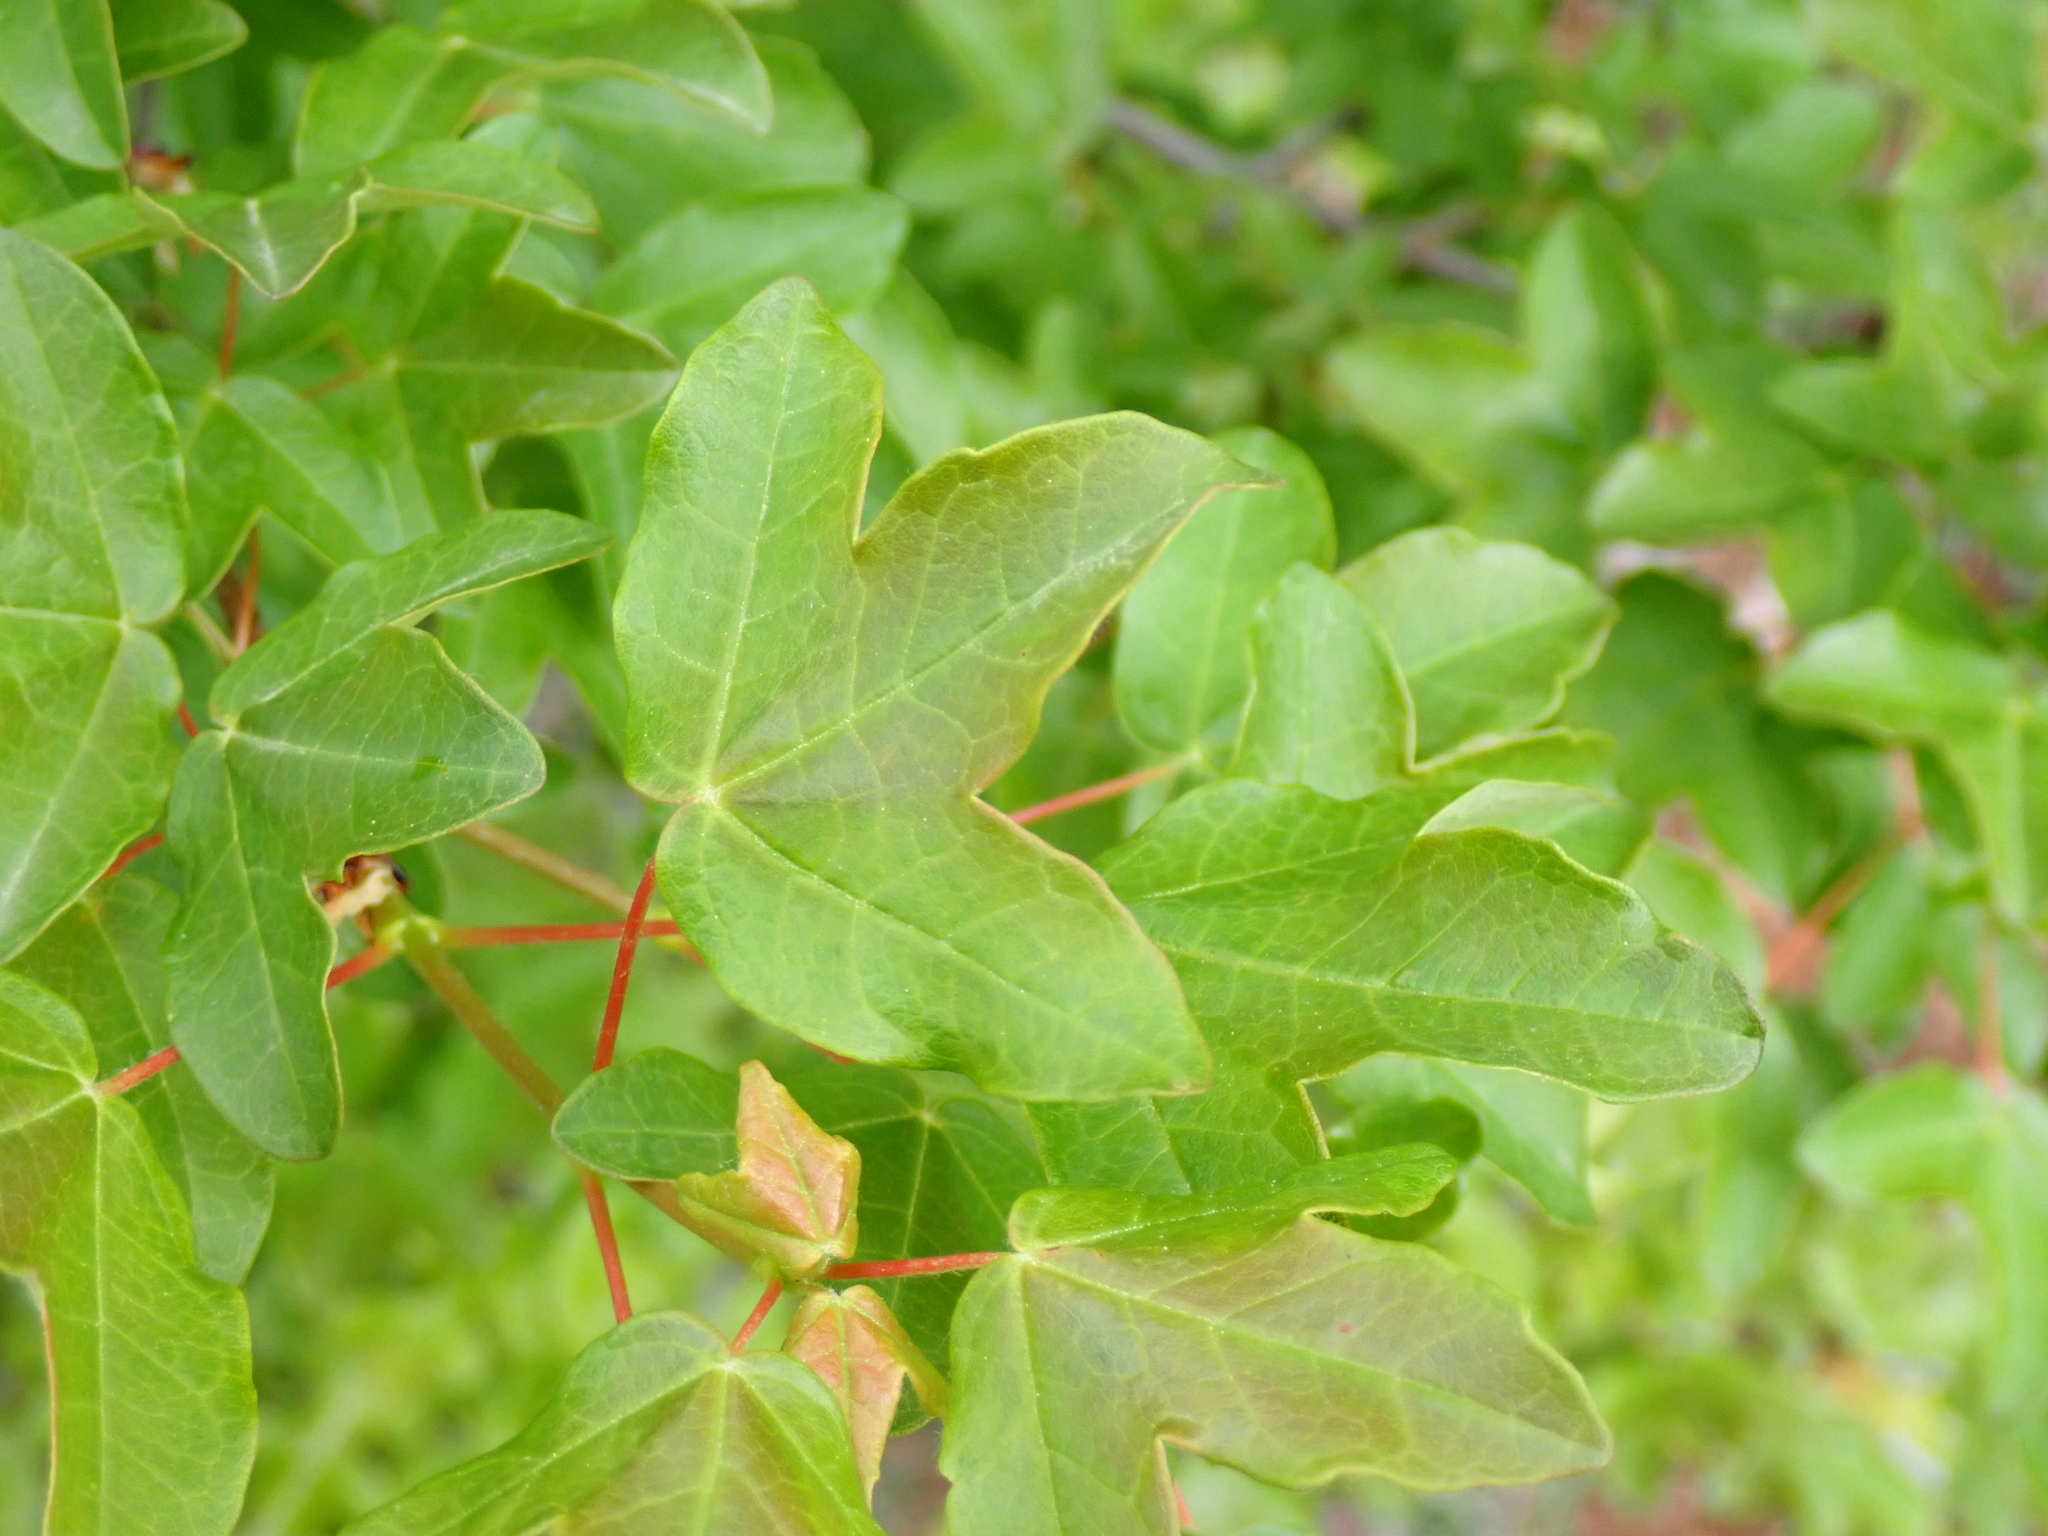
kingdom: Plantae
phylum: Tracheophyta
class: Magnoliopsida
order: Sapindales
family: Sapindaceae
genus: Acer
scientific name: Acer monspessulanum
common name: Montpellier maple
